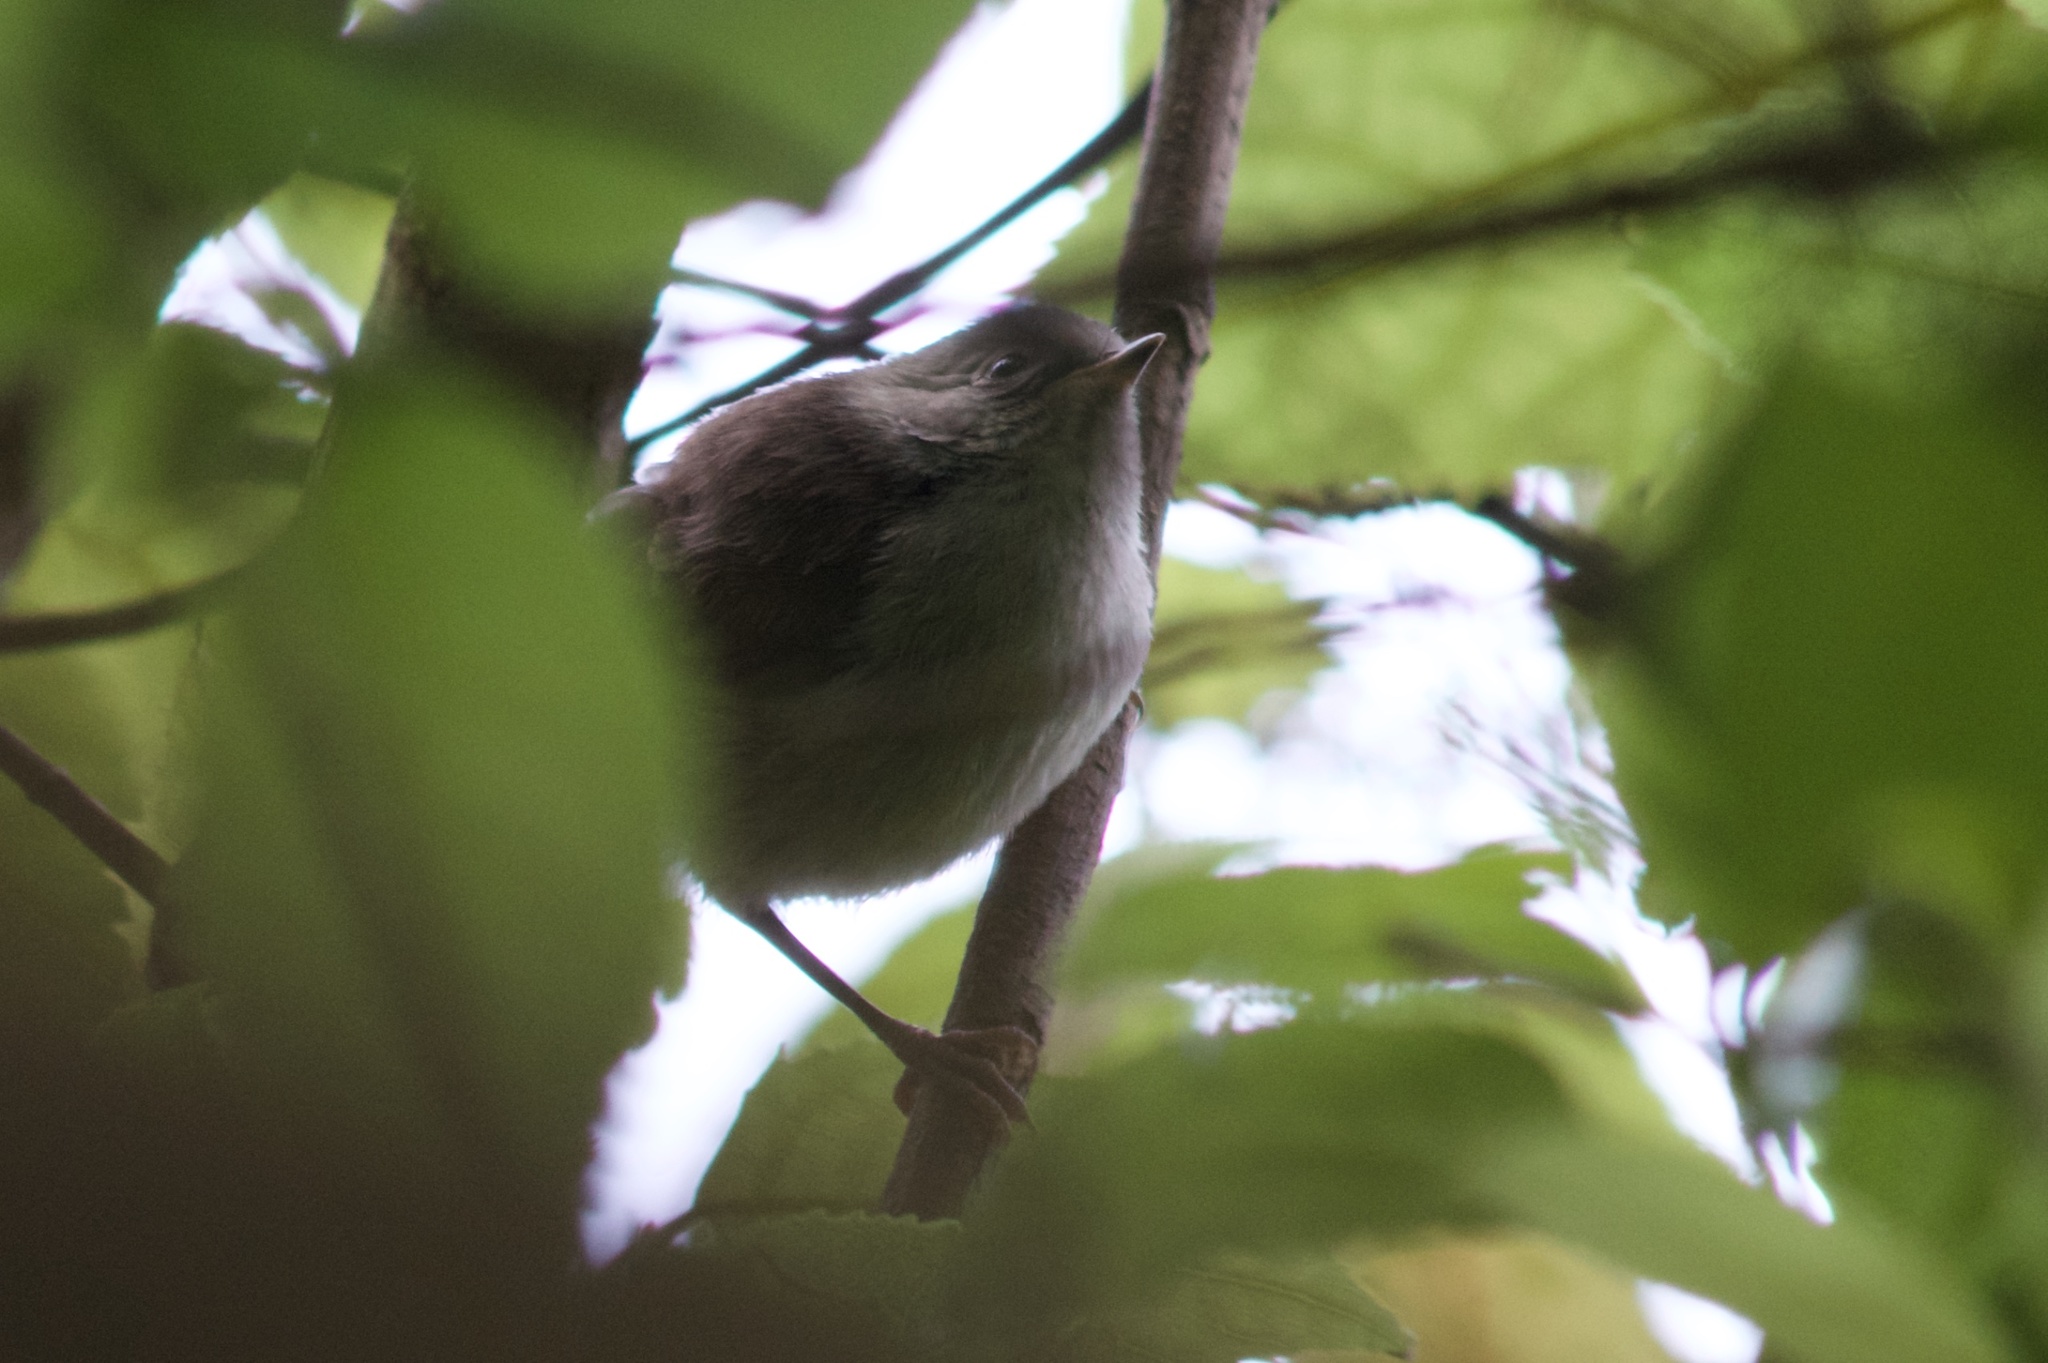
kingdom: Animalia
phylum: Chordata
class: Aves
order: Passeriformes
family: Acanthizidae
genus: Mohoua
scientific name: Mohoua albicilla
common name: Whitehead
